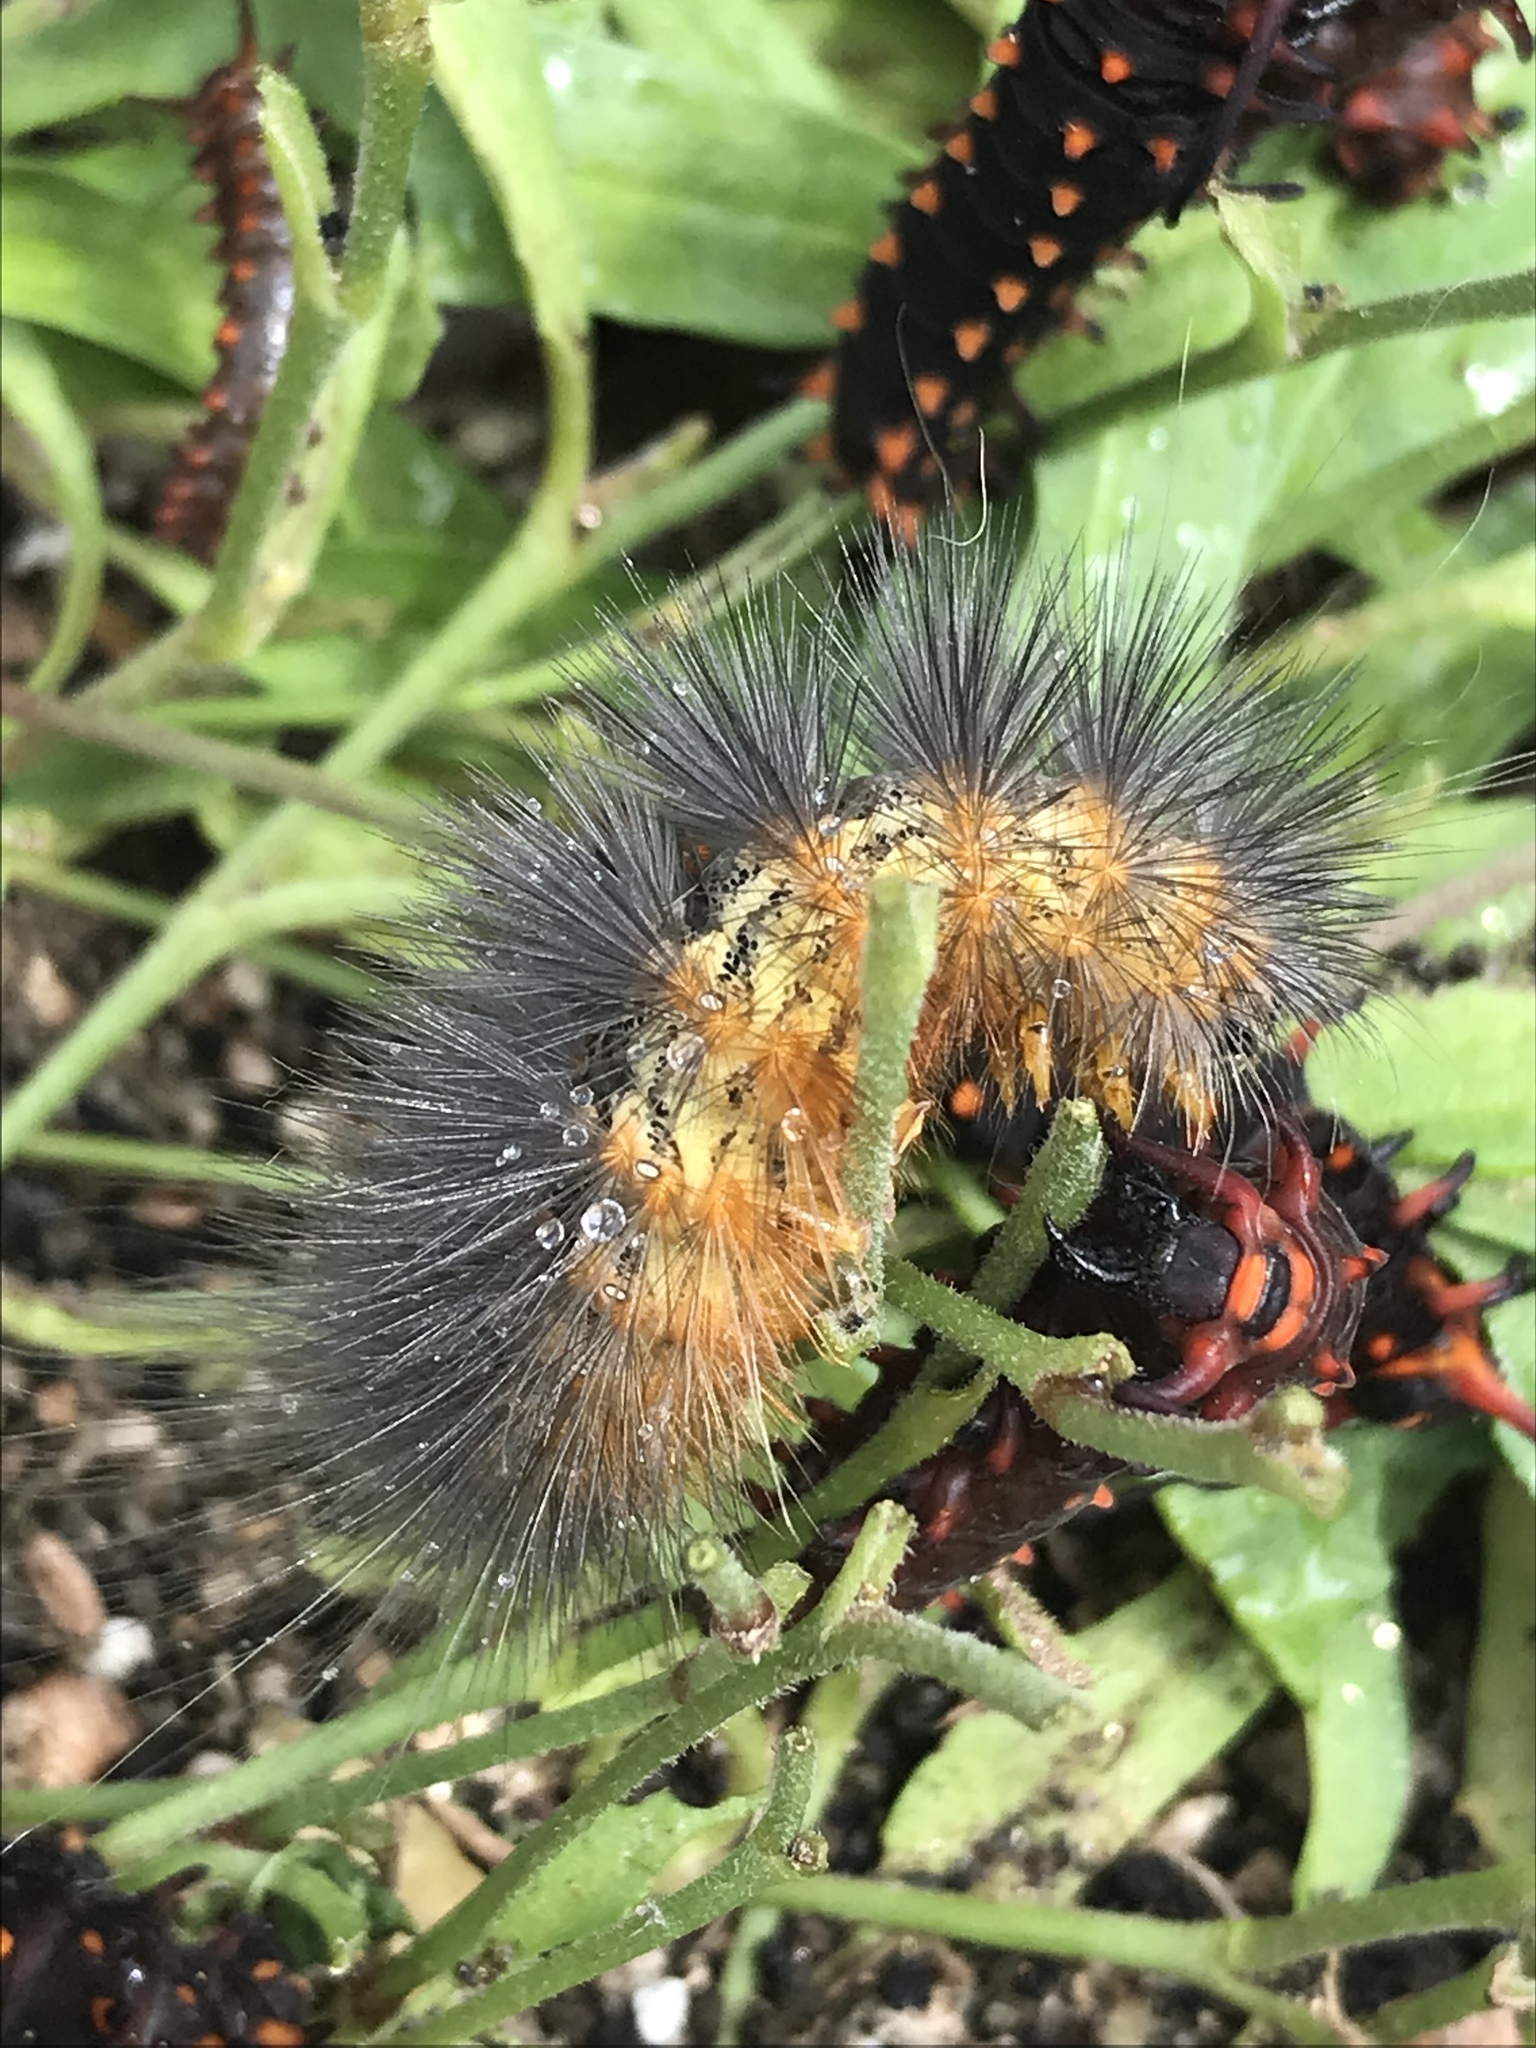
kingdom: Animalia
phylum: Arthropoda
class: Insecta
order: Lepidoptera
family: Erebidae
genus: Estigmene
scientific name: Estigmene acrea
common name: Salt marsh moth
